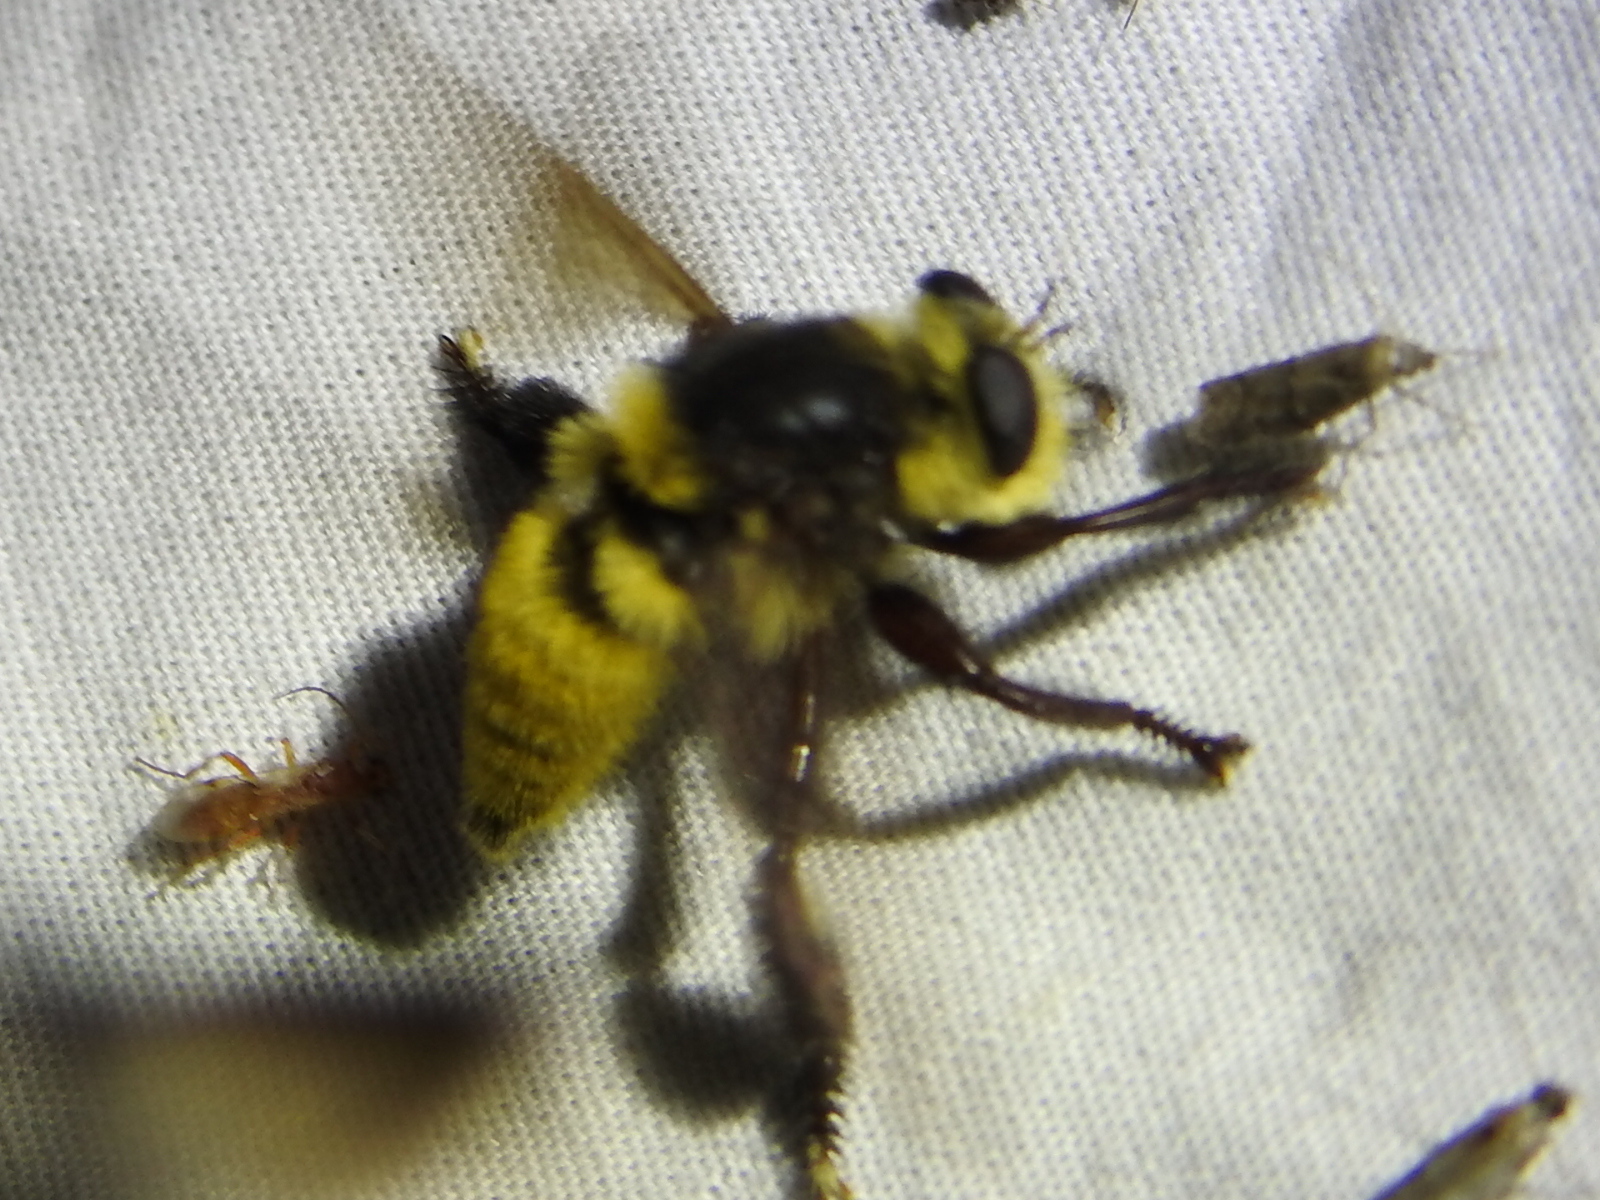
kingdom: Animalia
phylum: Arthropoda
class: Insecta
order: Diptera
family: Asilidae
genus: Mallophora
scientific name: Mallophora fautrix
